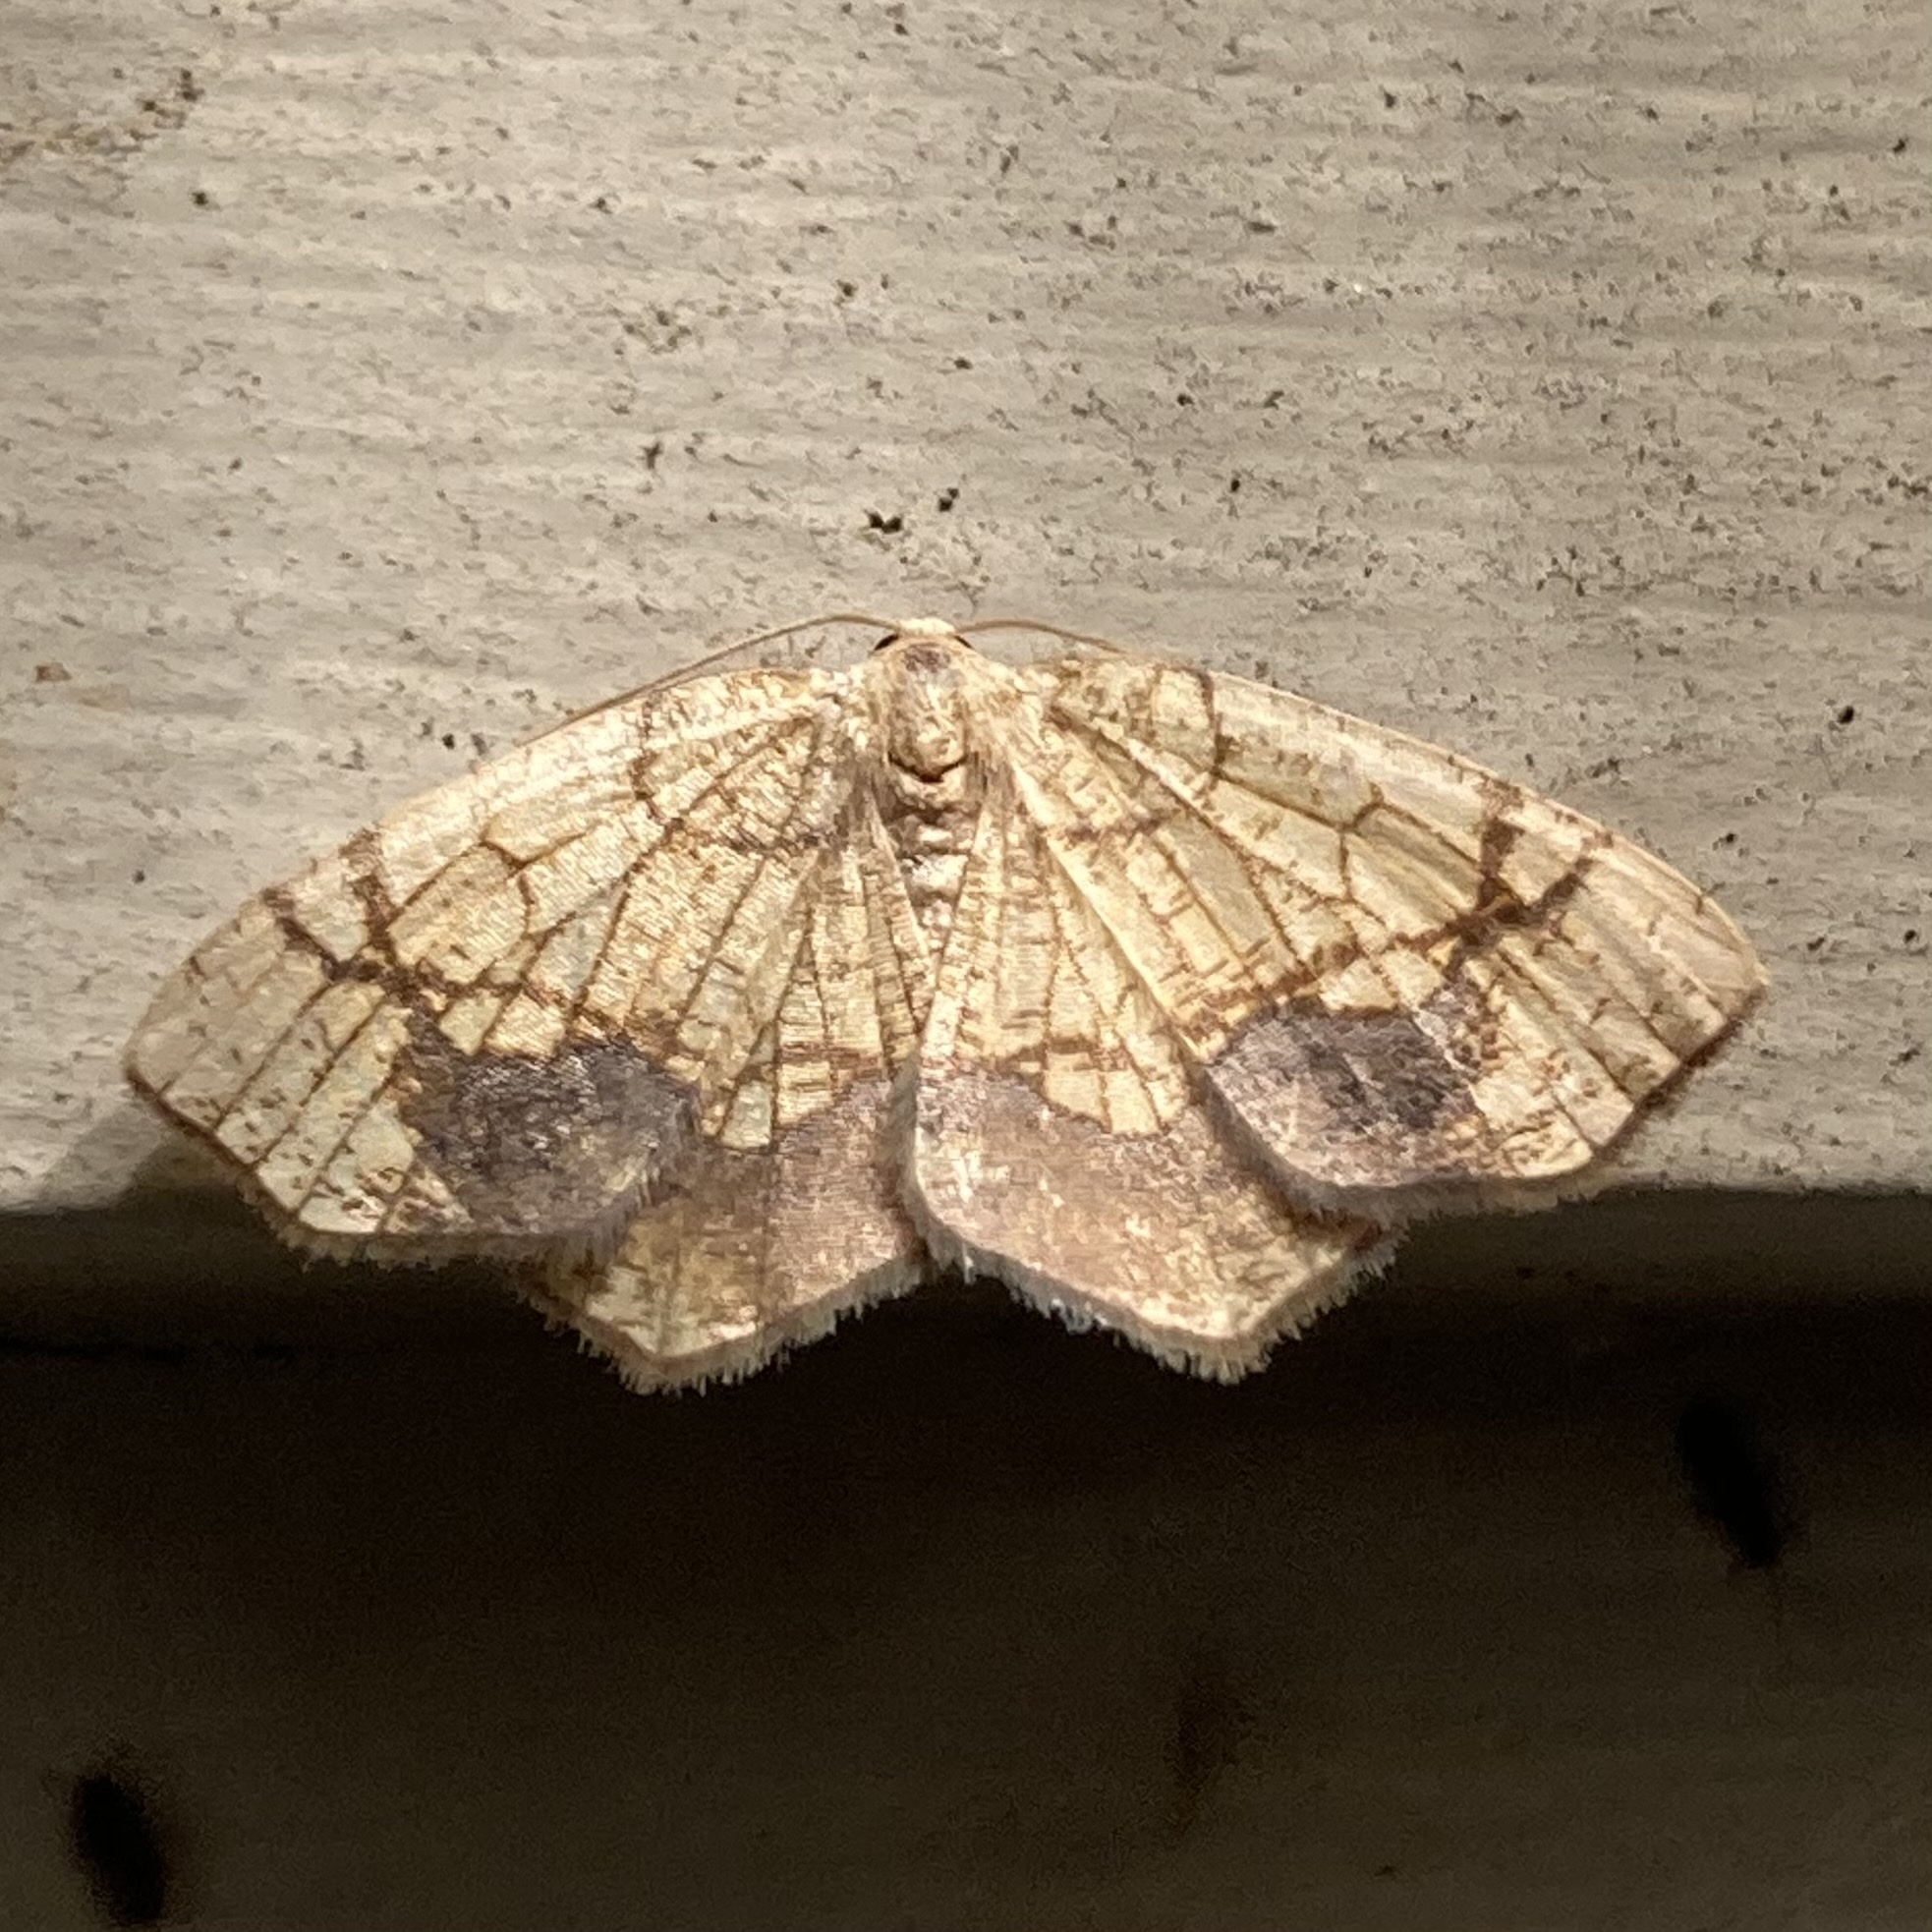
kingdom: Animalia
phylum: Arthropoda
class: Insecta
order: Lepidoptera
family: Geometridae
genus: Nematocampa
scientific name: Nematocampa resistaria
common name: Horned spanworm moth
